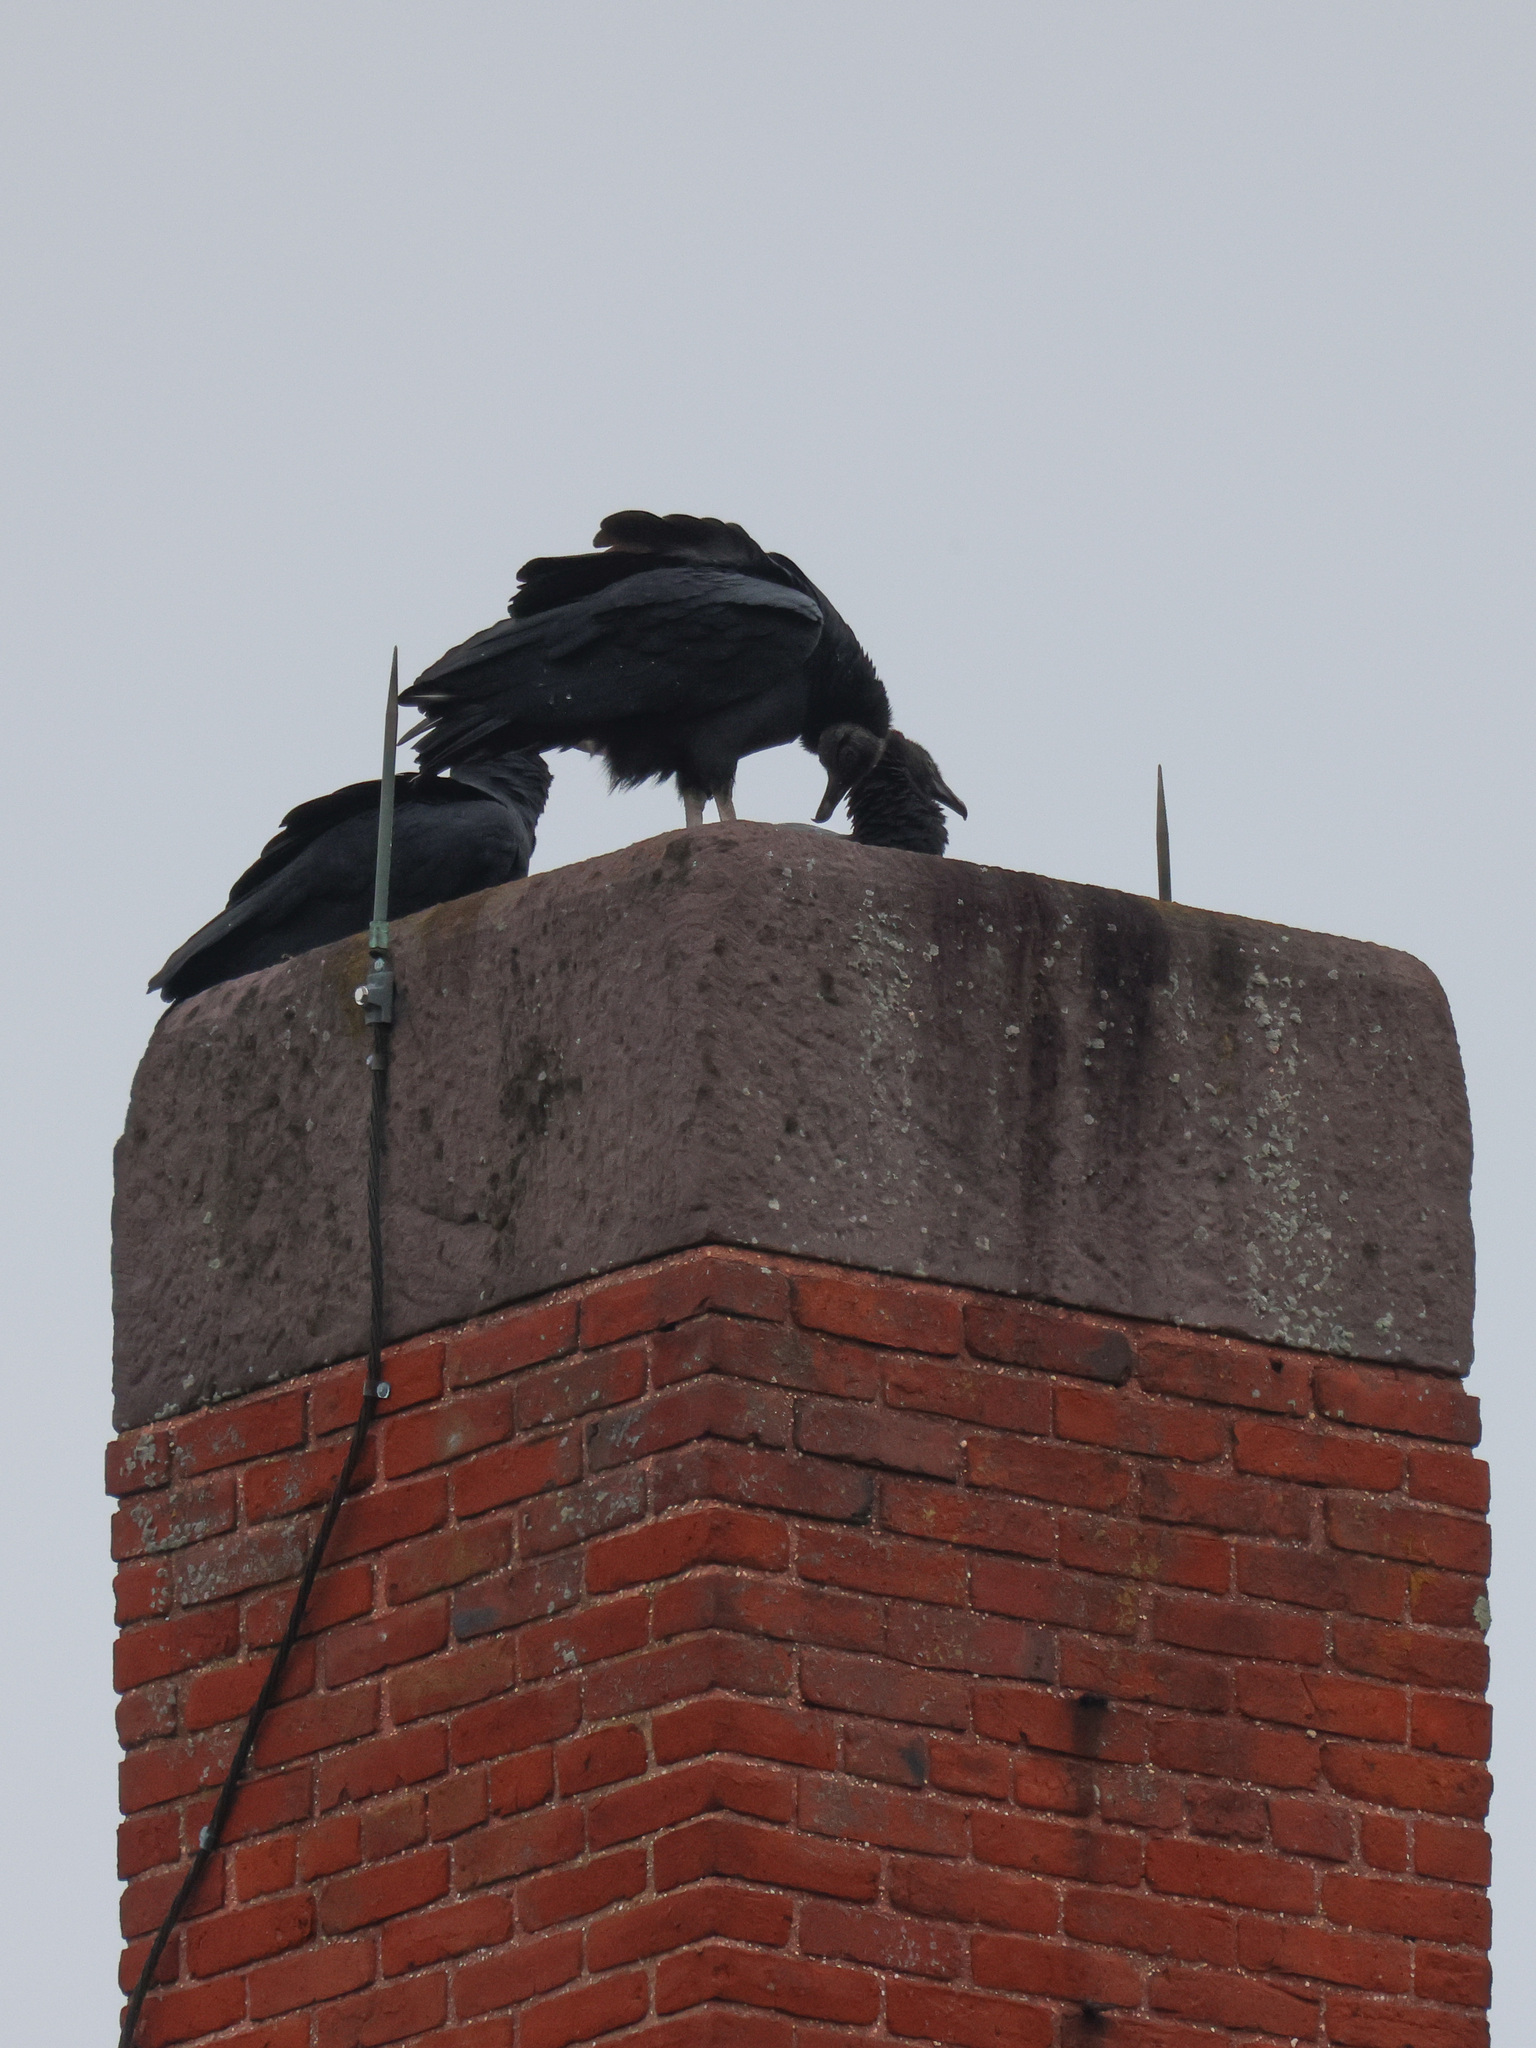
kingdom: Animalia
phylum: Chordata
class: Aves
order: Accipitriformes
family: Cathartidae
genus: Coragyps
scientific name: Coragyps atratus
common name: Black vulture
